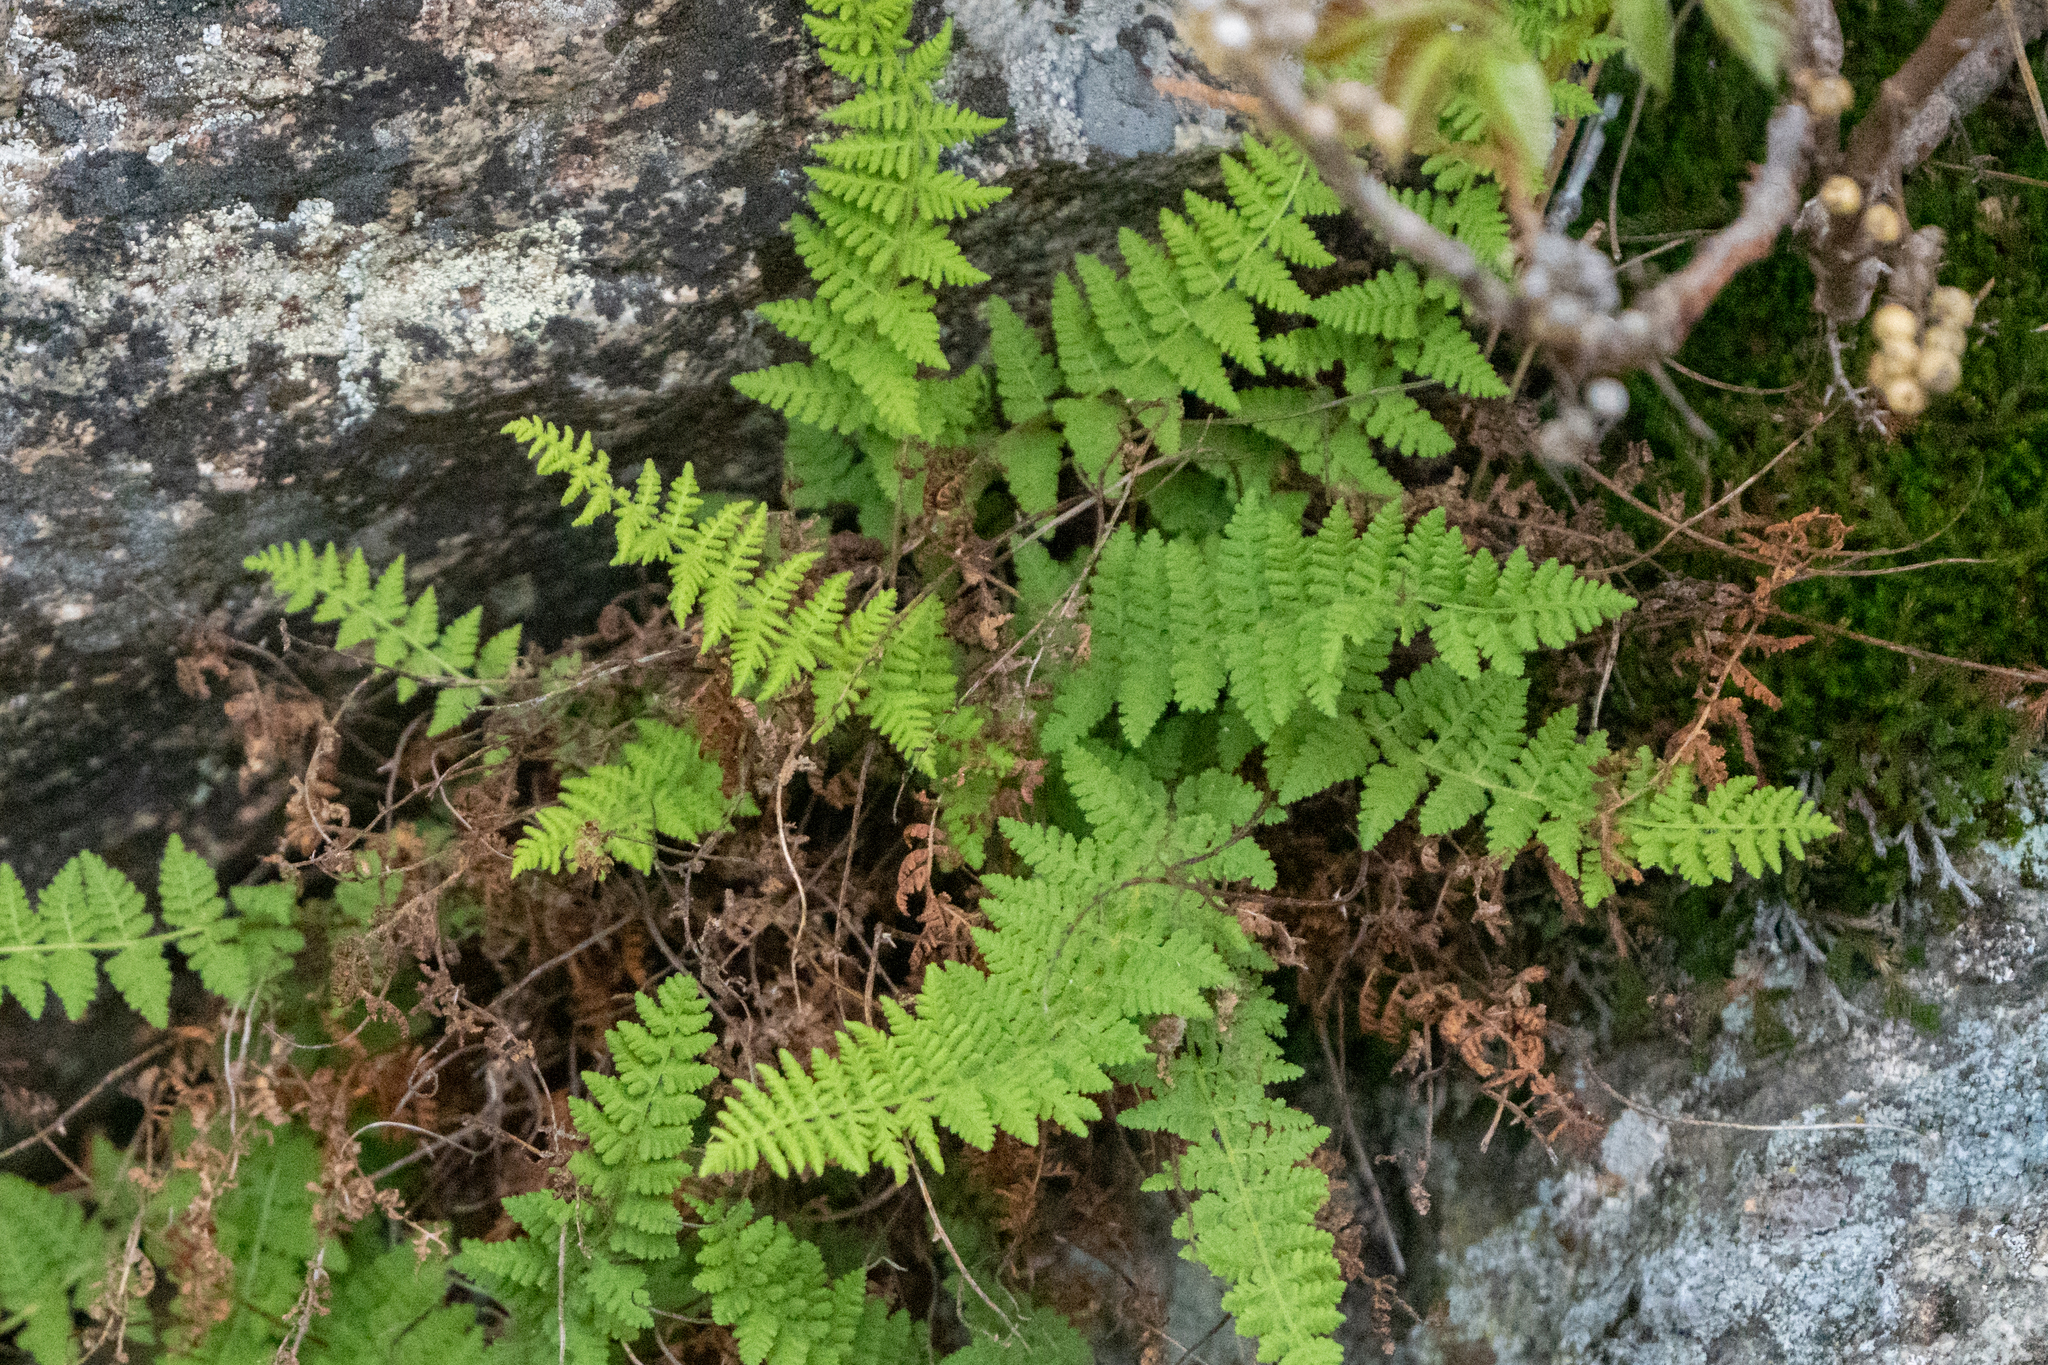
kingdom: Plantae
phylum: Tracheophyta
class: Polypodiopsida
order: Polypodiales
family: Woodsiaceae
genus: Physematium
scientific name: Physematium scopulinum
